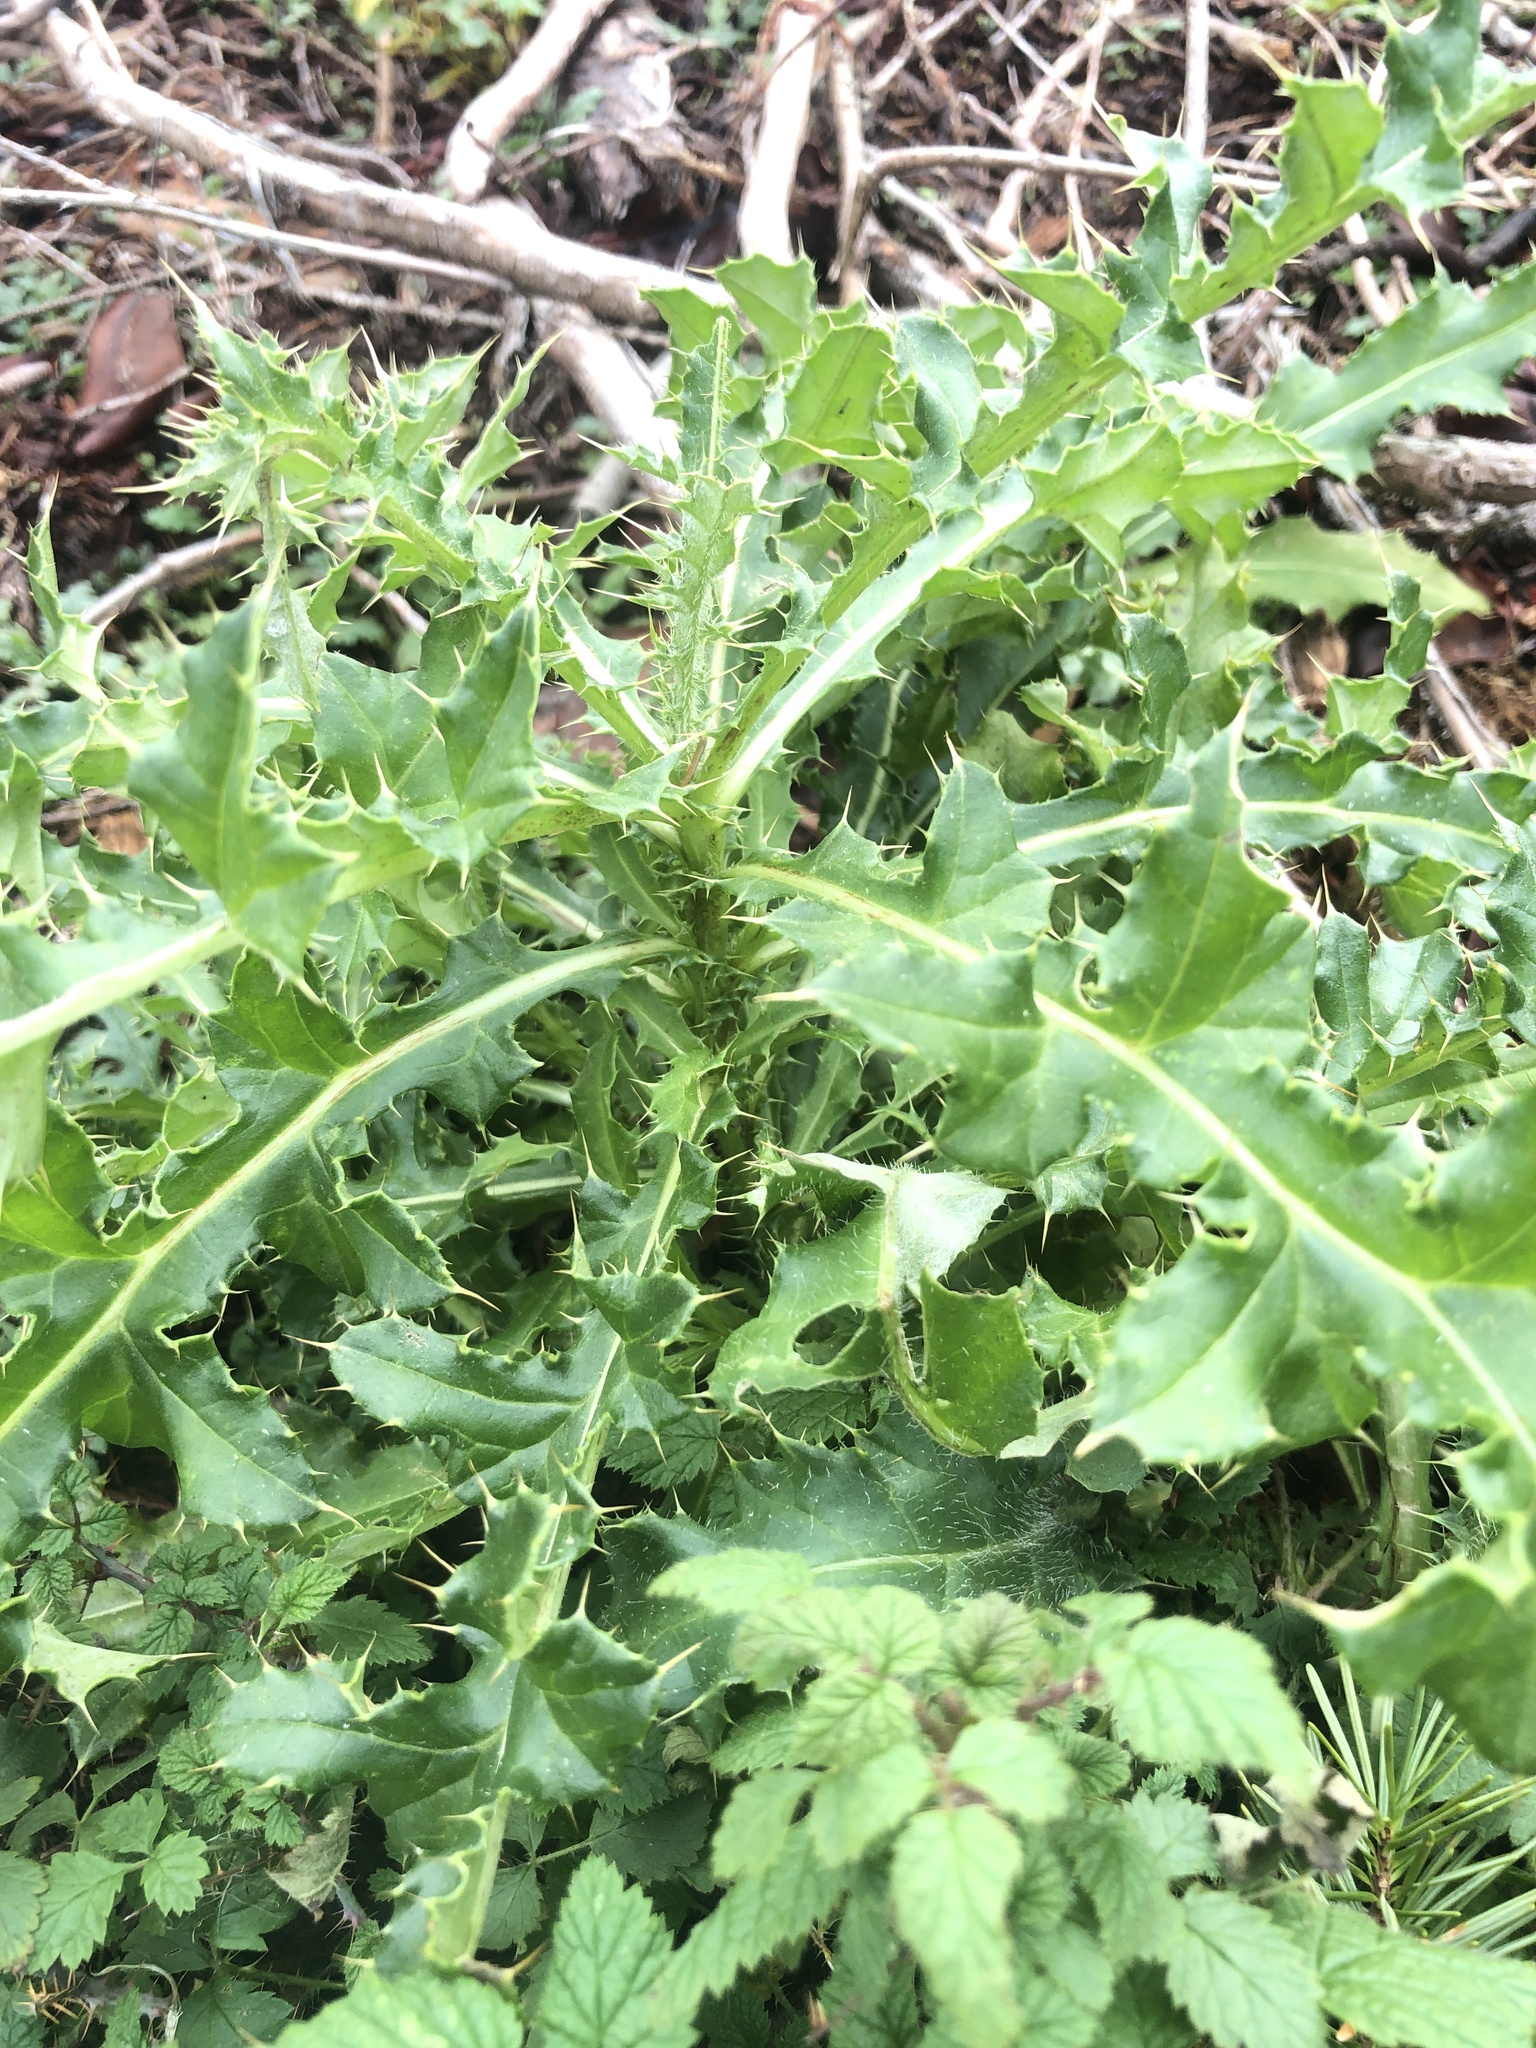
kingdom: Plantae
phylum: Tracheophyta
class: Magnoliopsida
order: Asterales
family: Asteraceae
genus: Cirsium
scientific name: Cirsium arvense
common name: Creeping thistle
